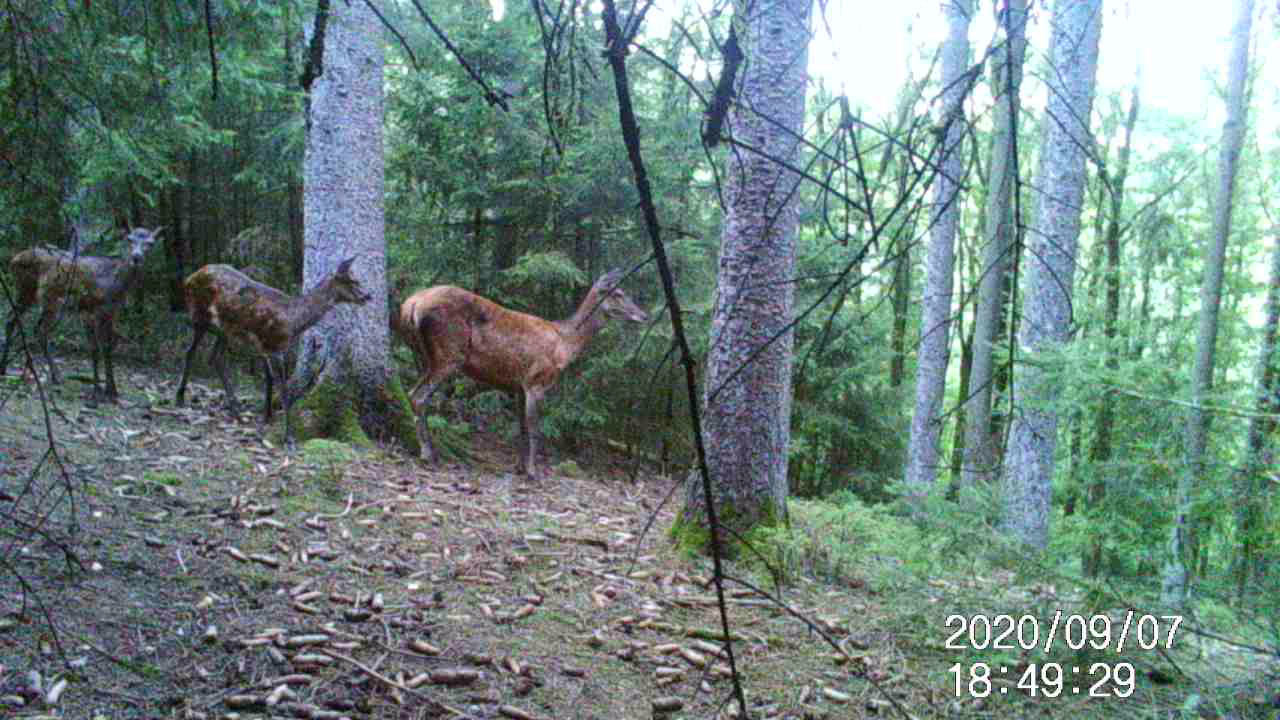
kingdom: Animalia
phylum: Chordata
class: Mammalia
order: Artiodactyla
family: Cervidae
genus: Cervus
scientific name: Cervus elaphus
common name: Red deer
